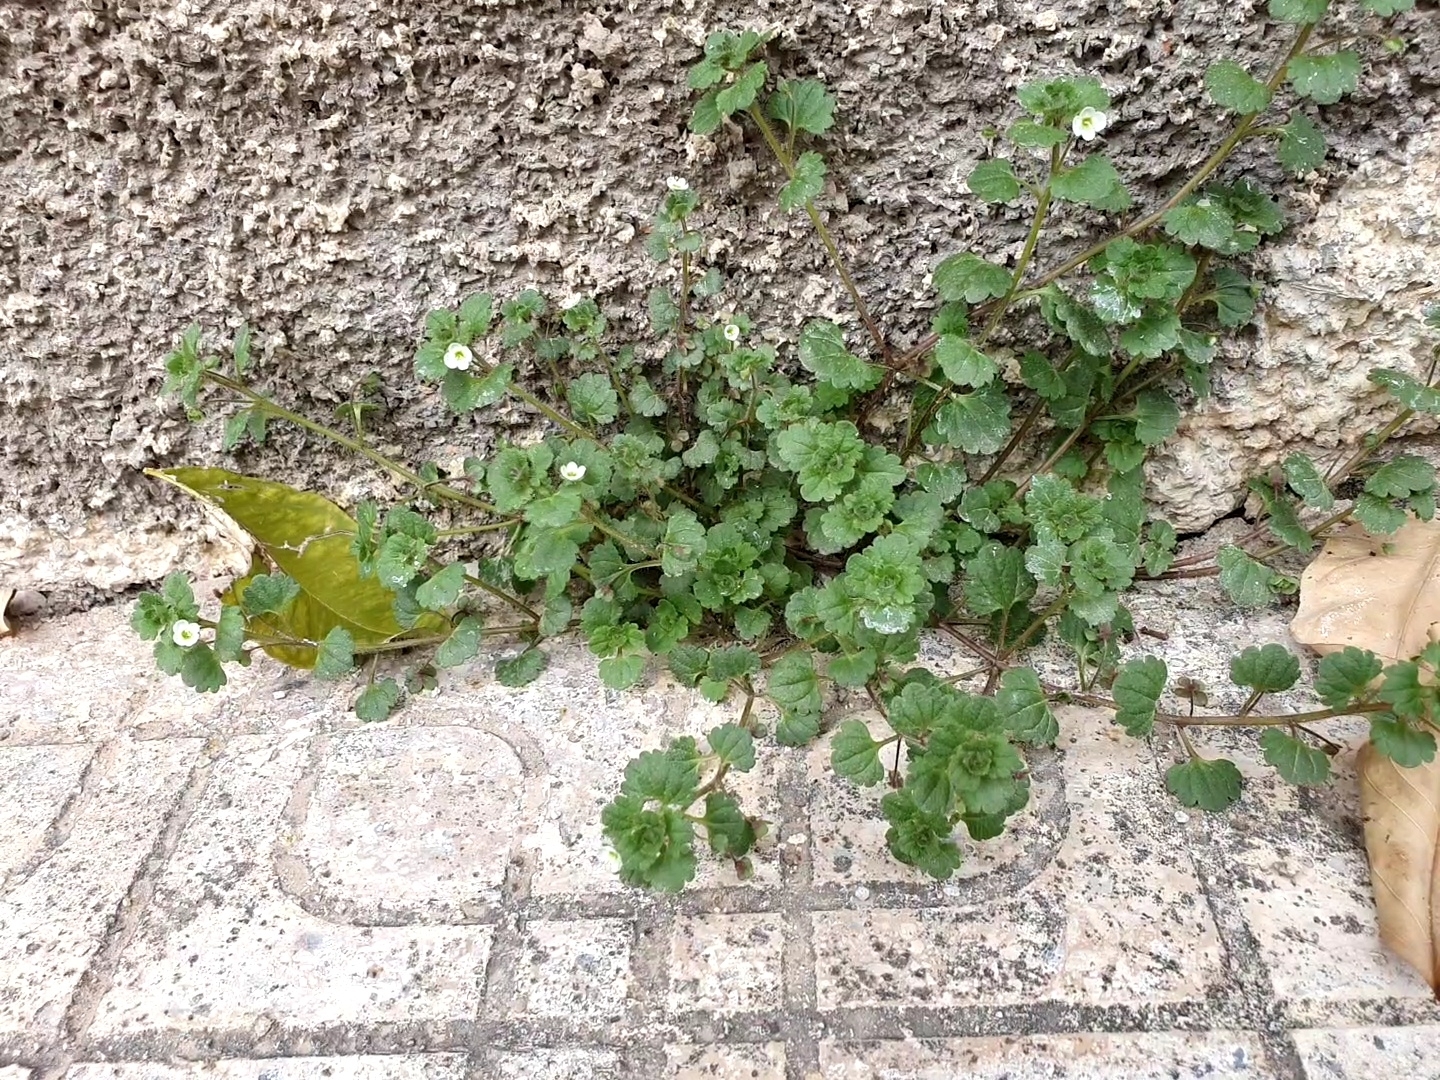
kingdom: Plantae
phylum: Tracheophyta
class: Magnoliopsida
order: Lamiales
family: Plantaginaceae
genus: Veronica
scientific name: Veronica cymbalaria
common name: Pale speedwell
